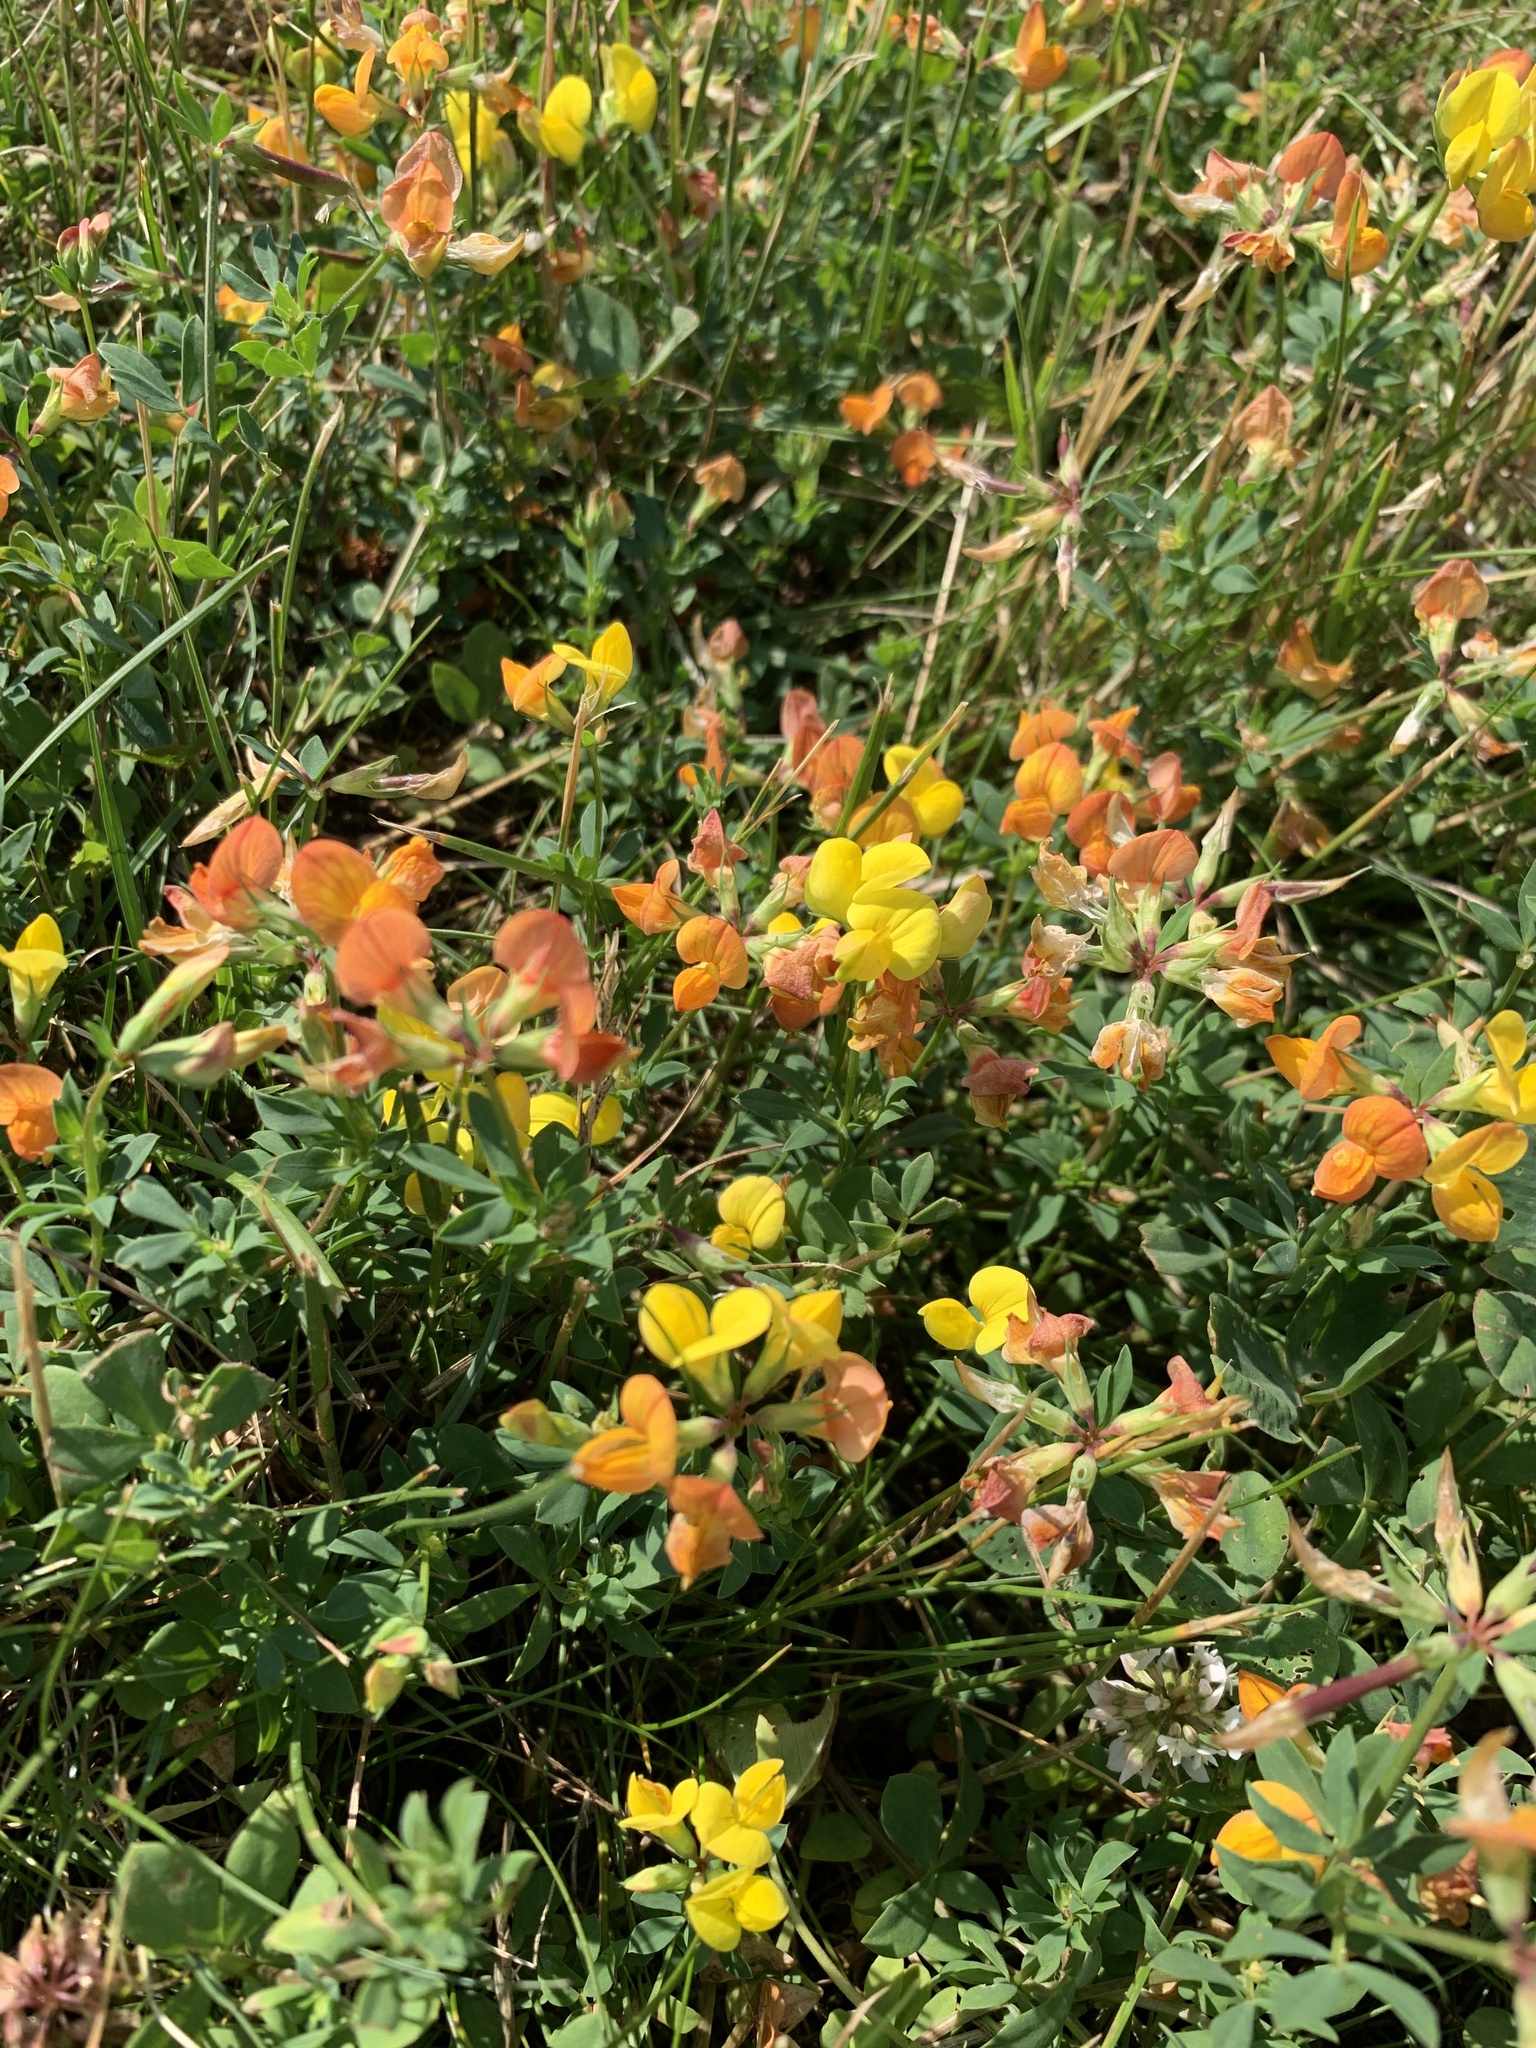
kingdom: Plantae
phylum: Tracheophyta
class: Magnoliopsida
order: Fabales
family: Fabaceae
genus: Lotus
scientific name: Lotus corniculatus
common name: Common bird's-foot-trefoil
